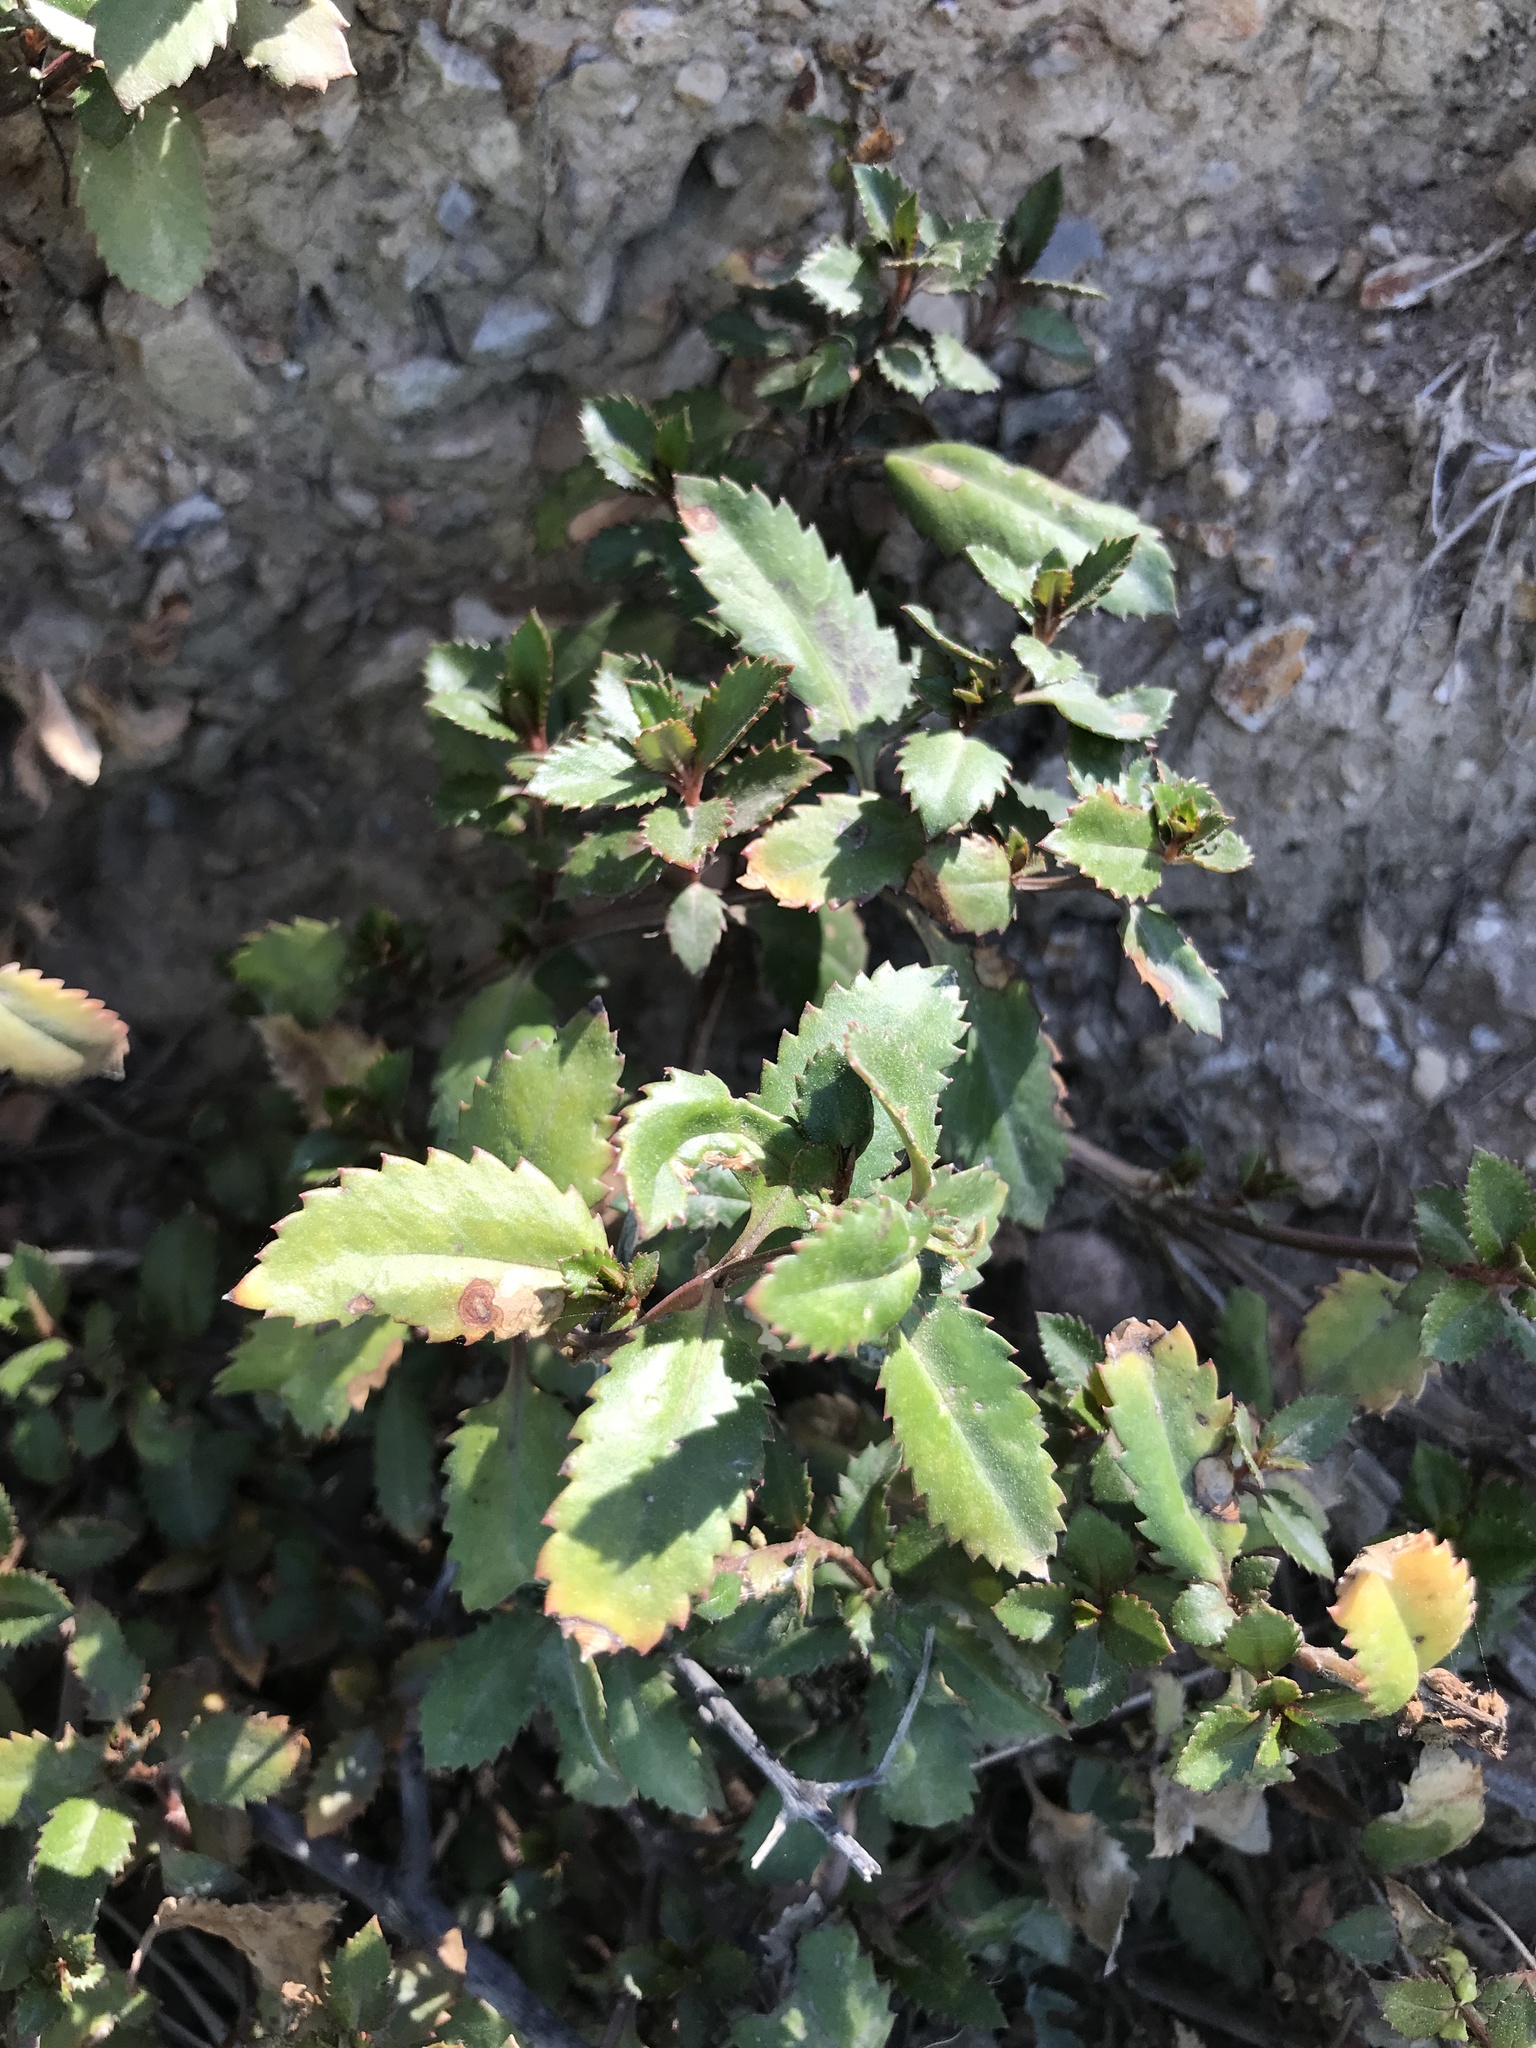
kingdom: Plantae
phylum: Tracheophyta
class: Magnoliopsida
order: Saxifragales
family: Haloragaceae
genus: Haloragis
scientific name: Haloragis erecta
